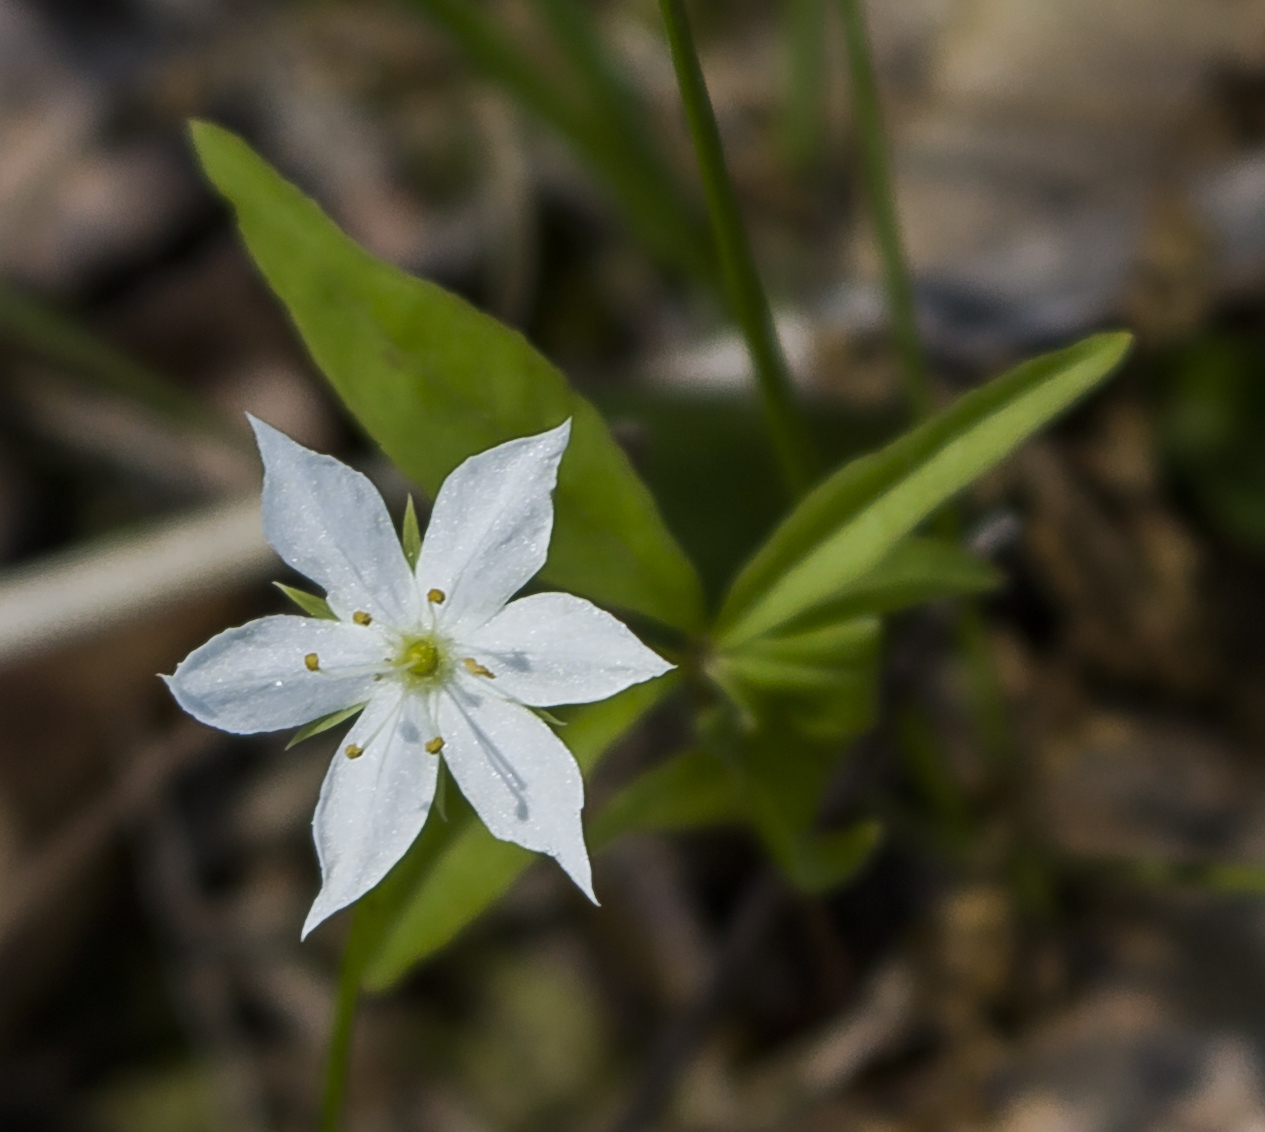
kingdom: Plantae
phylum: Tracheophyta
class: Magnoliopsida
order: Ericales
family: Primulaceae
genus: Lysimachia
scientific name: Lysimachia borealis
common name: American starflower
